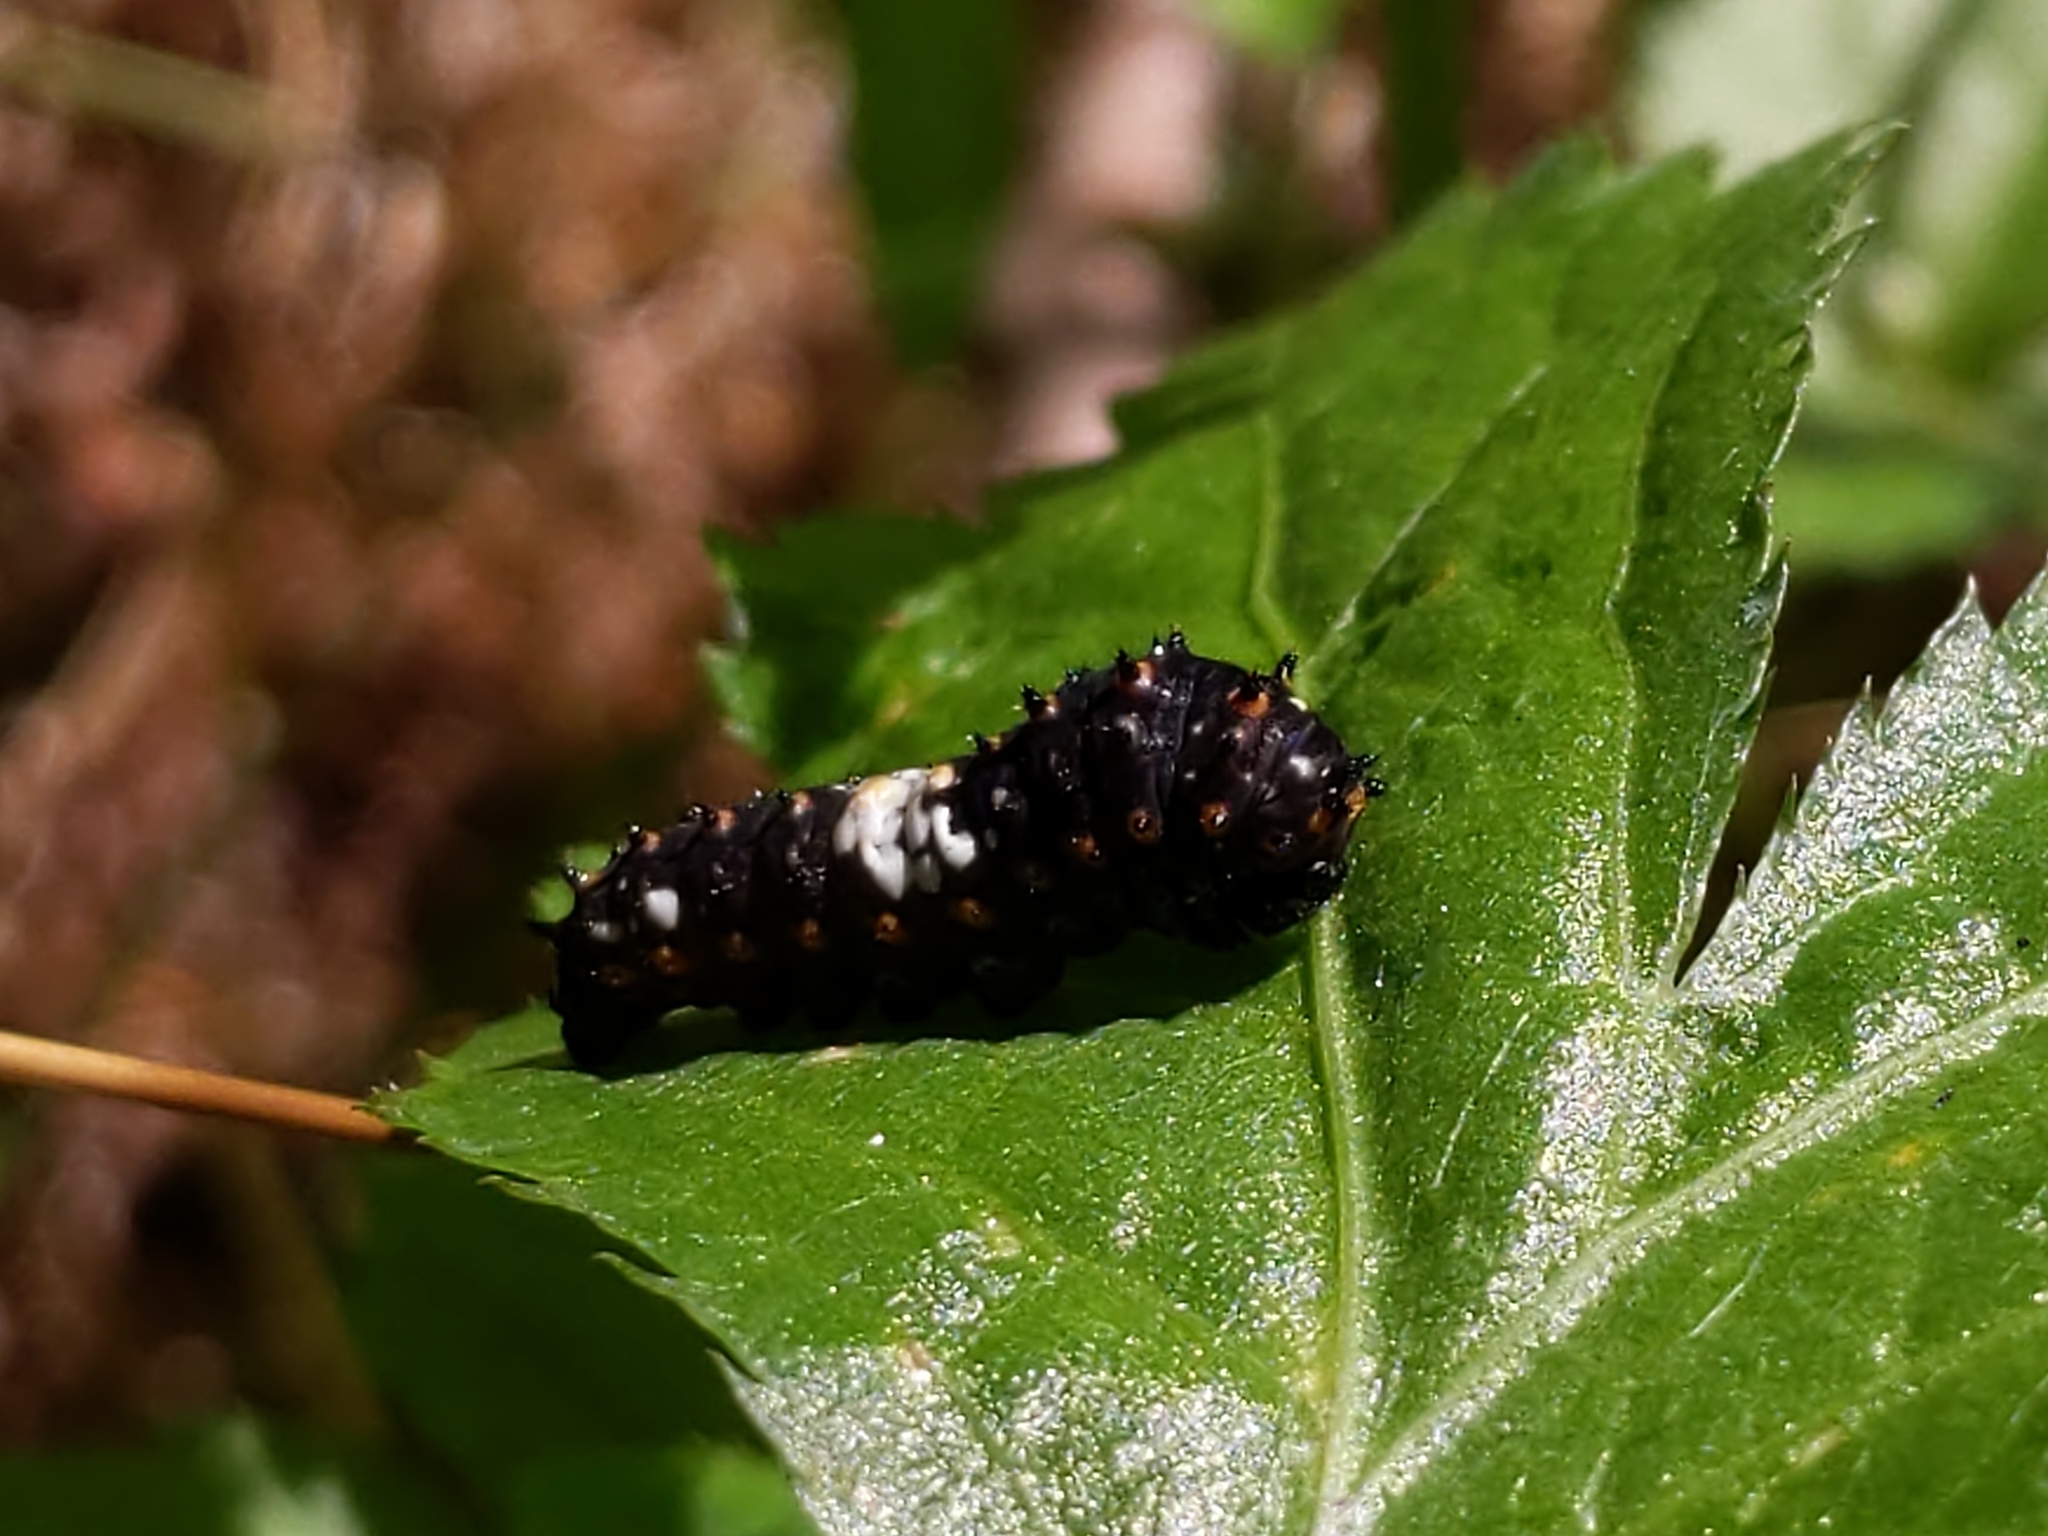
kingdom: Animalia
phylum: Arthropoda
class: Insecta
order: Lepidoptera
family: Papilionidae
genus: Papilio
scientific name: Papilio polyxenes
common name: Black swallowtail
